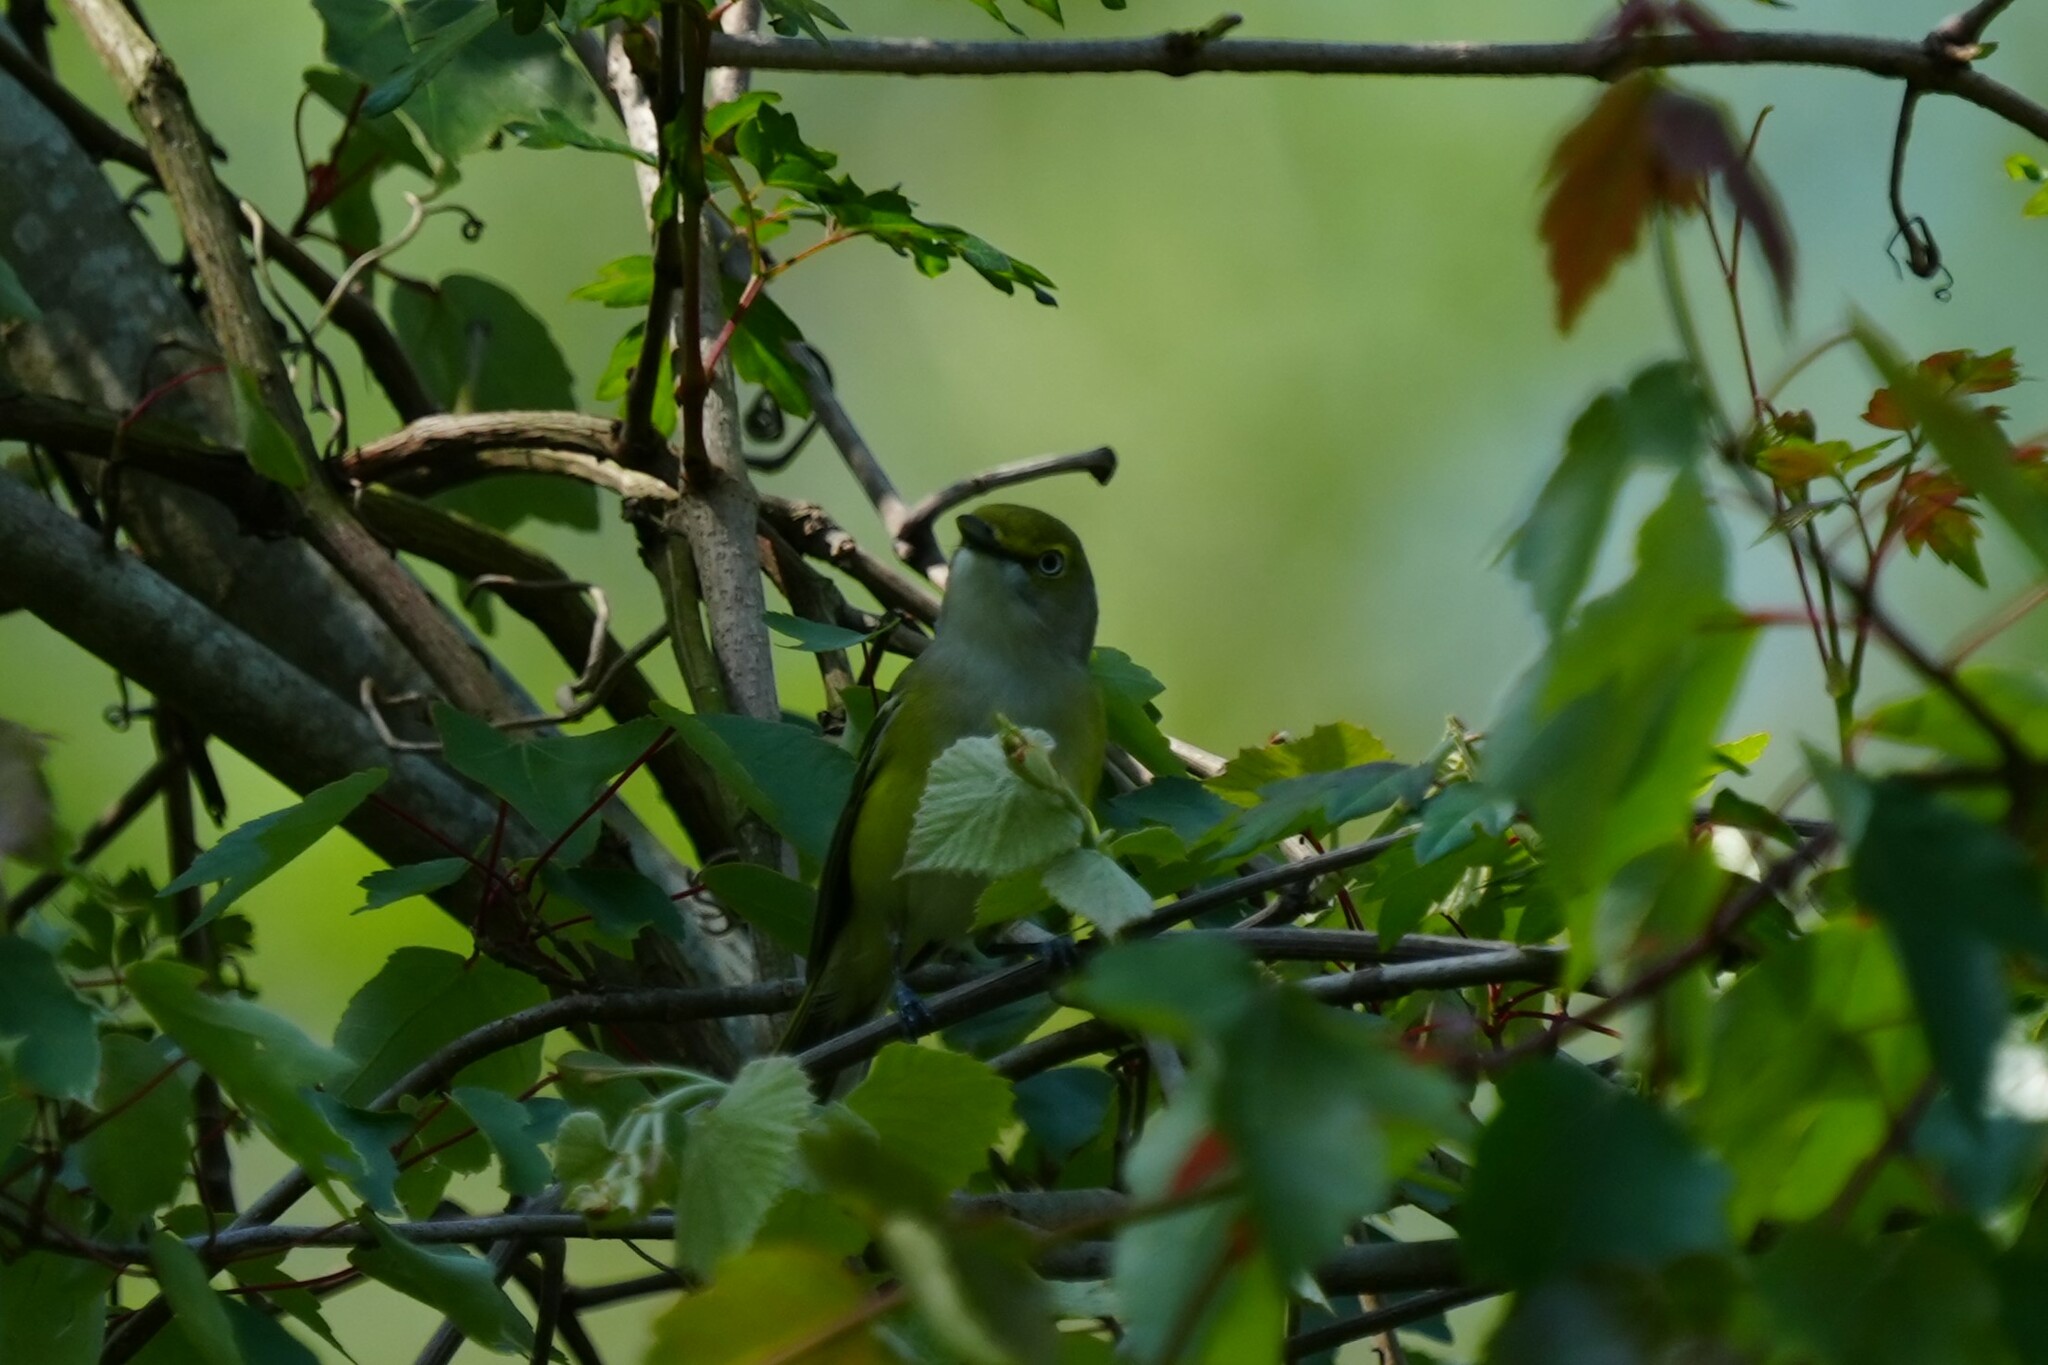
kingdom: Animalia
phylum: Chordata
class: Aves
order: Passeriformes
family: Vireonidae
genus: Vireo
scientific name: Vireo griseus
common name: White-eyed vireo
